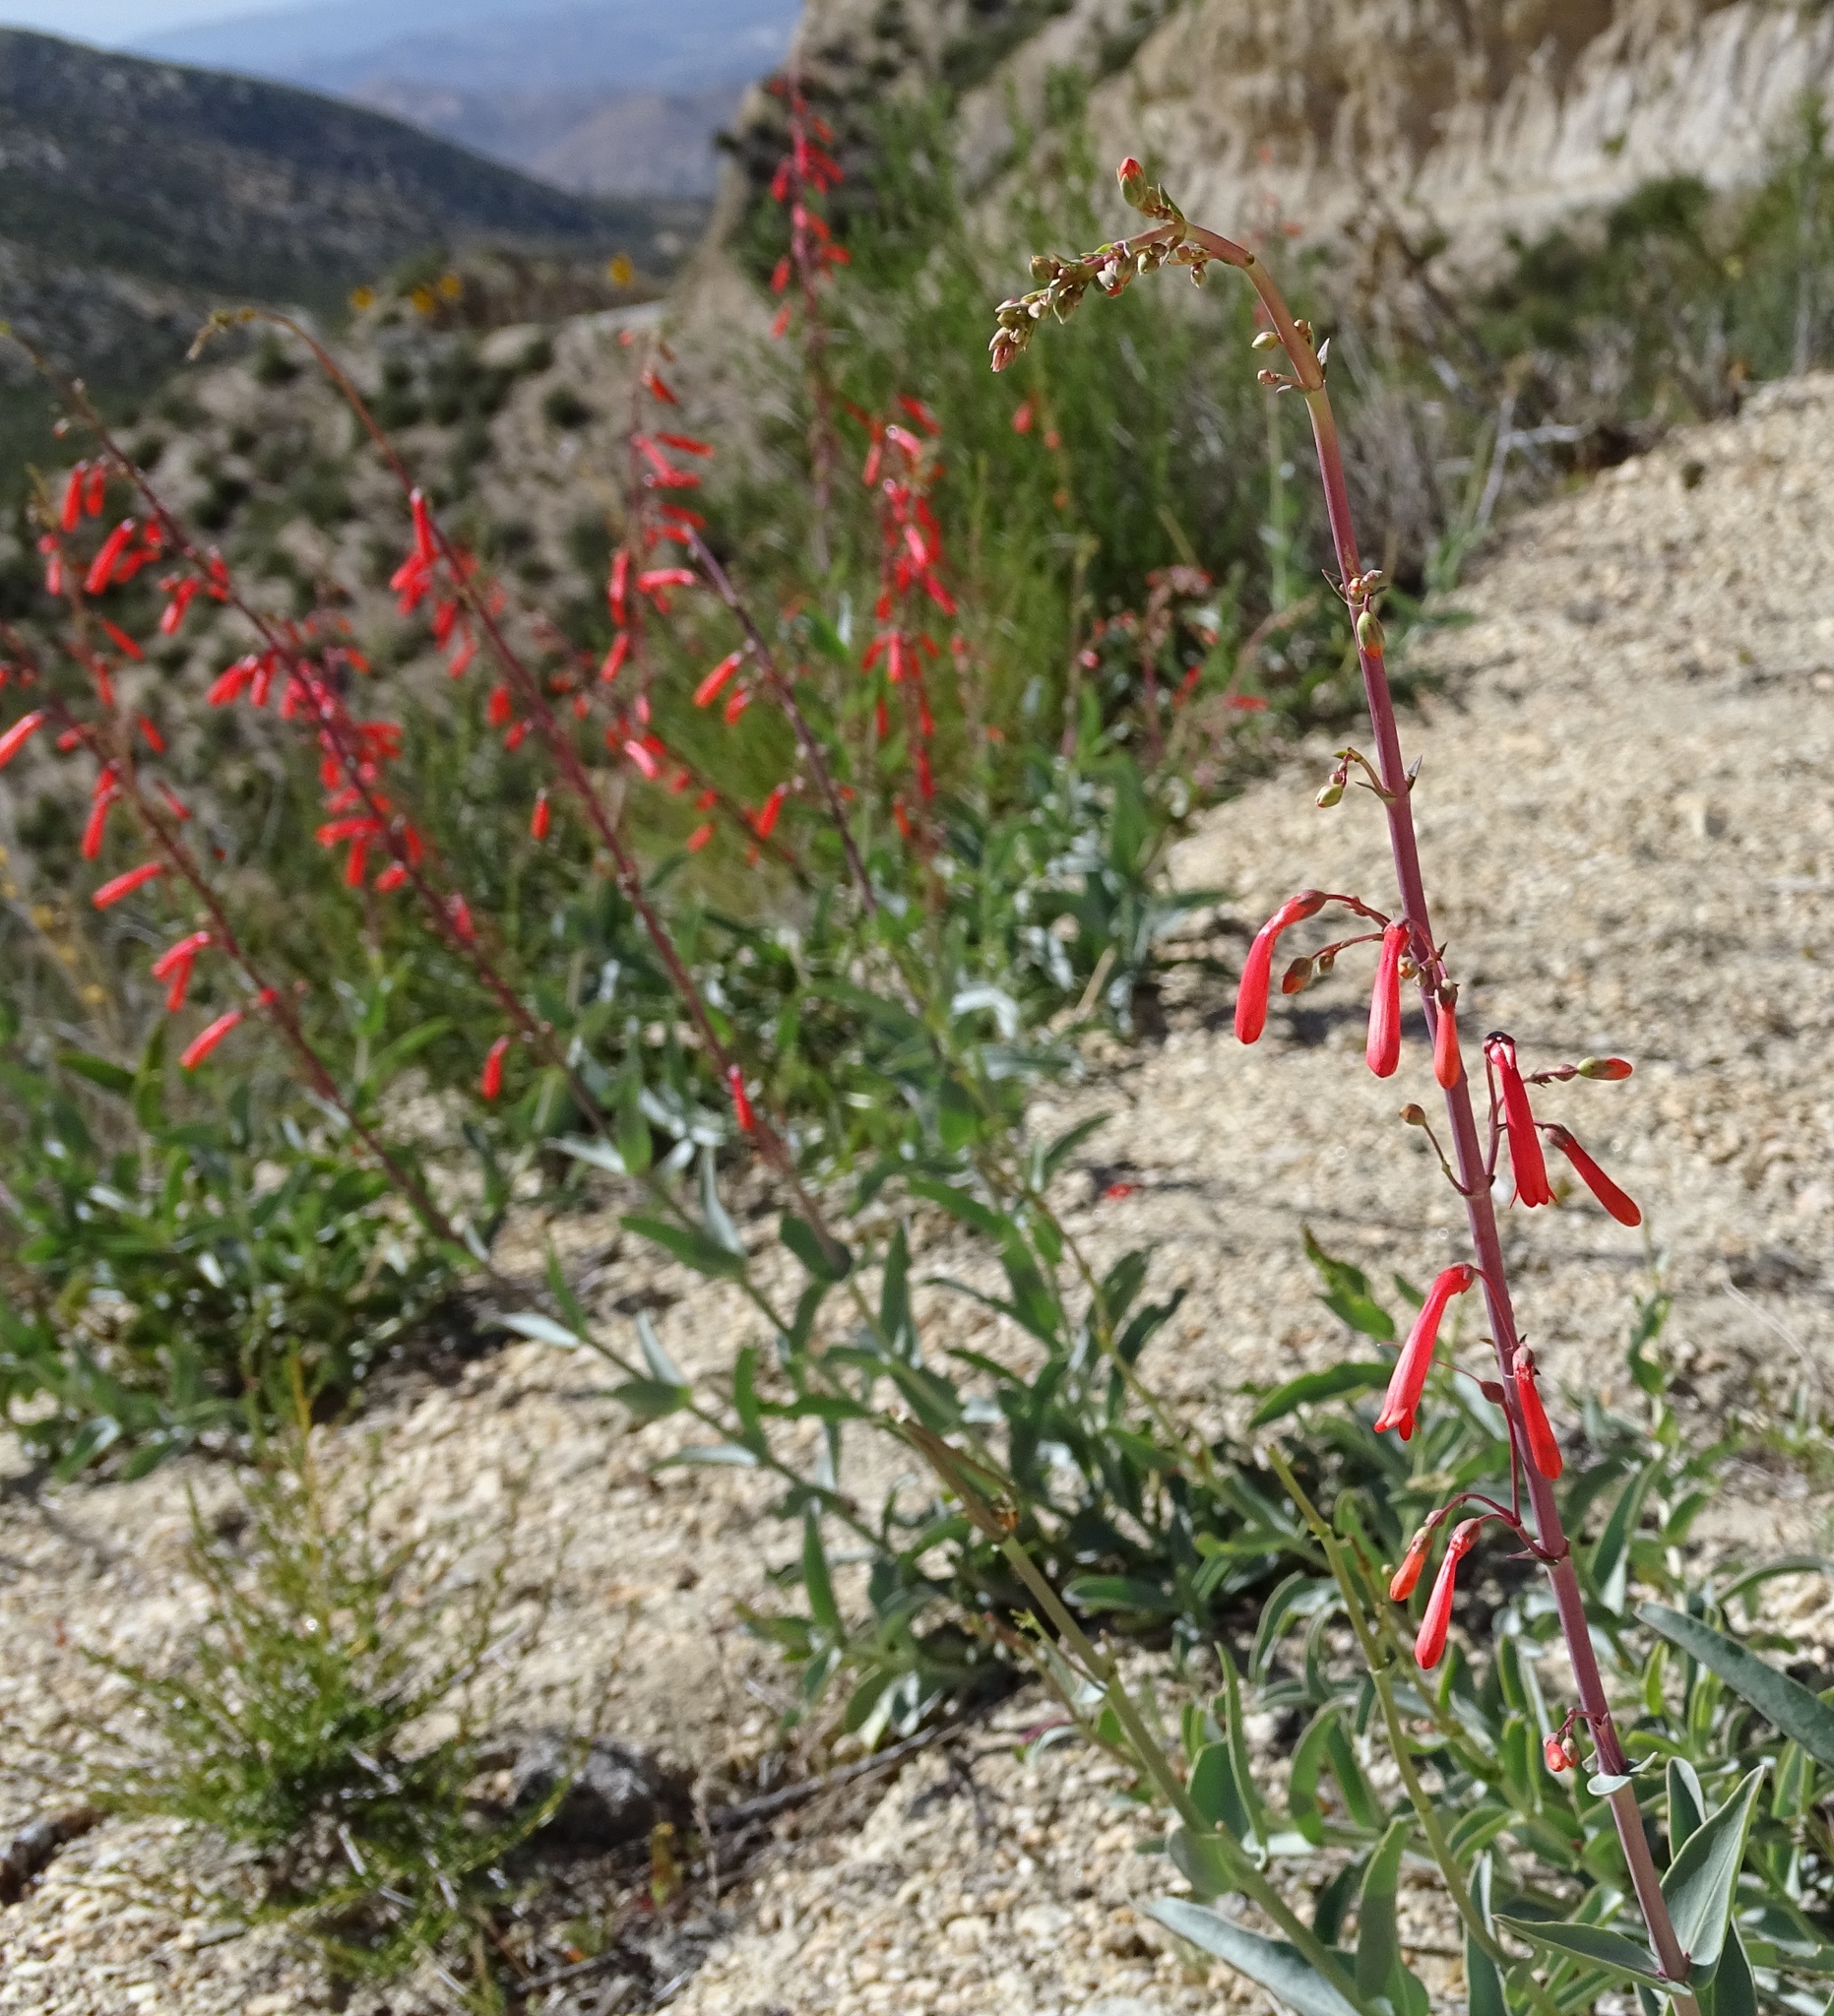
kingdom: Plantae
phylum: Tracheophyta
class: Magnoliopsida
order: Lamiales
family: Plantaginaceae
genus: Penstemon
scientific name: Penstemon centranthifolius
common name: Scarlet bugler
